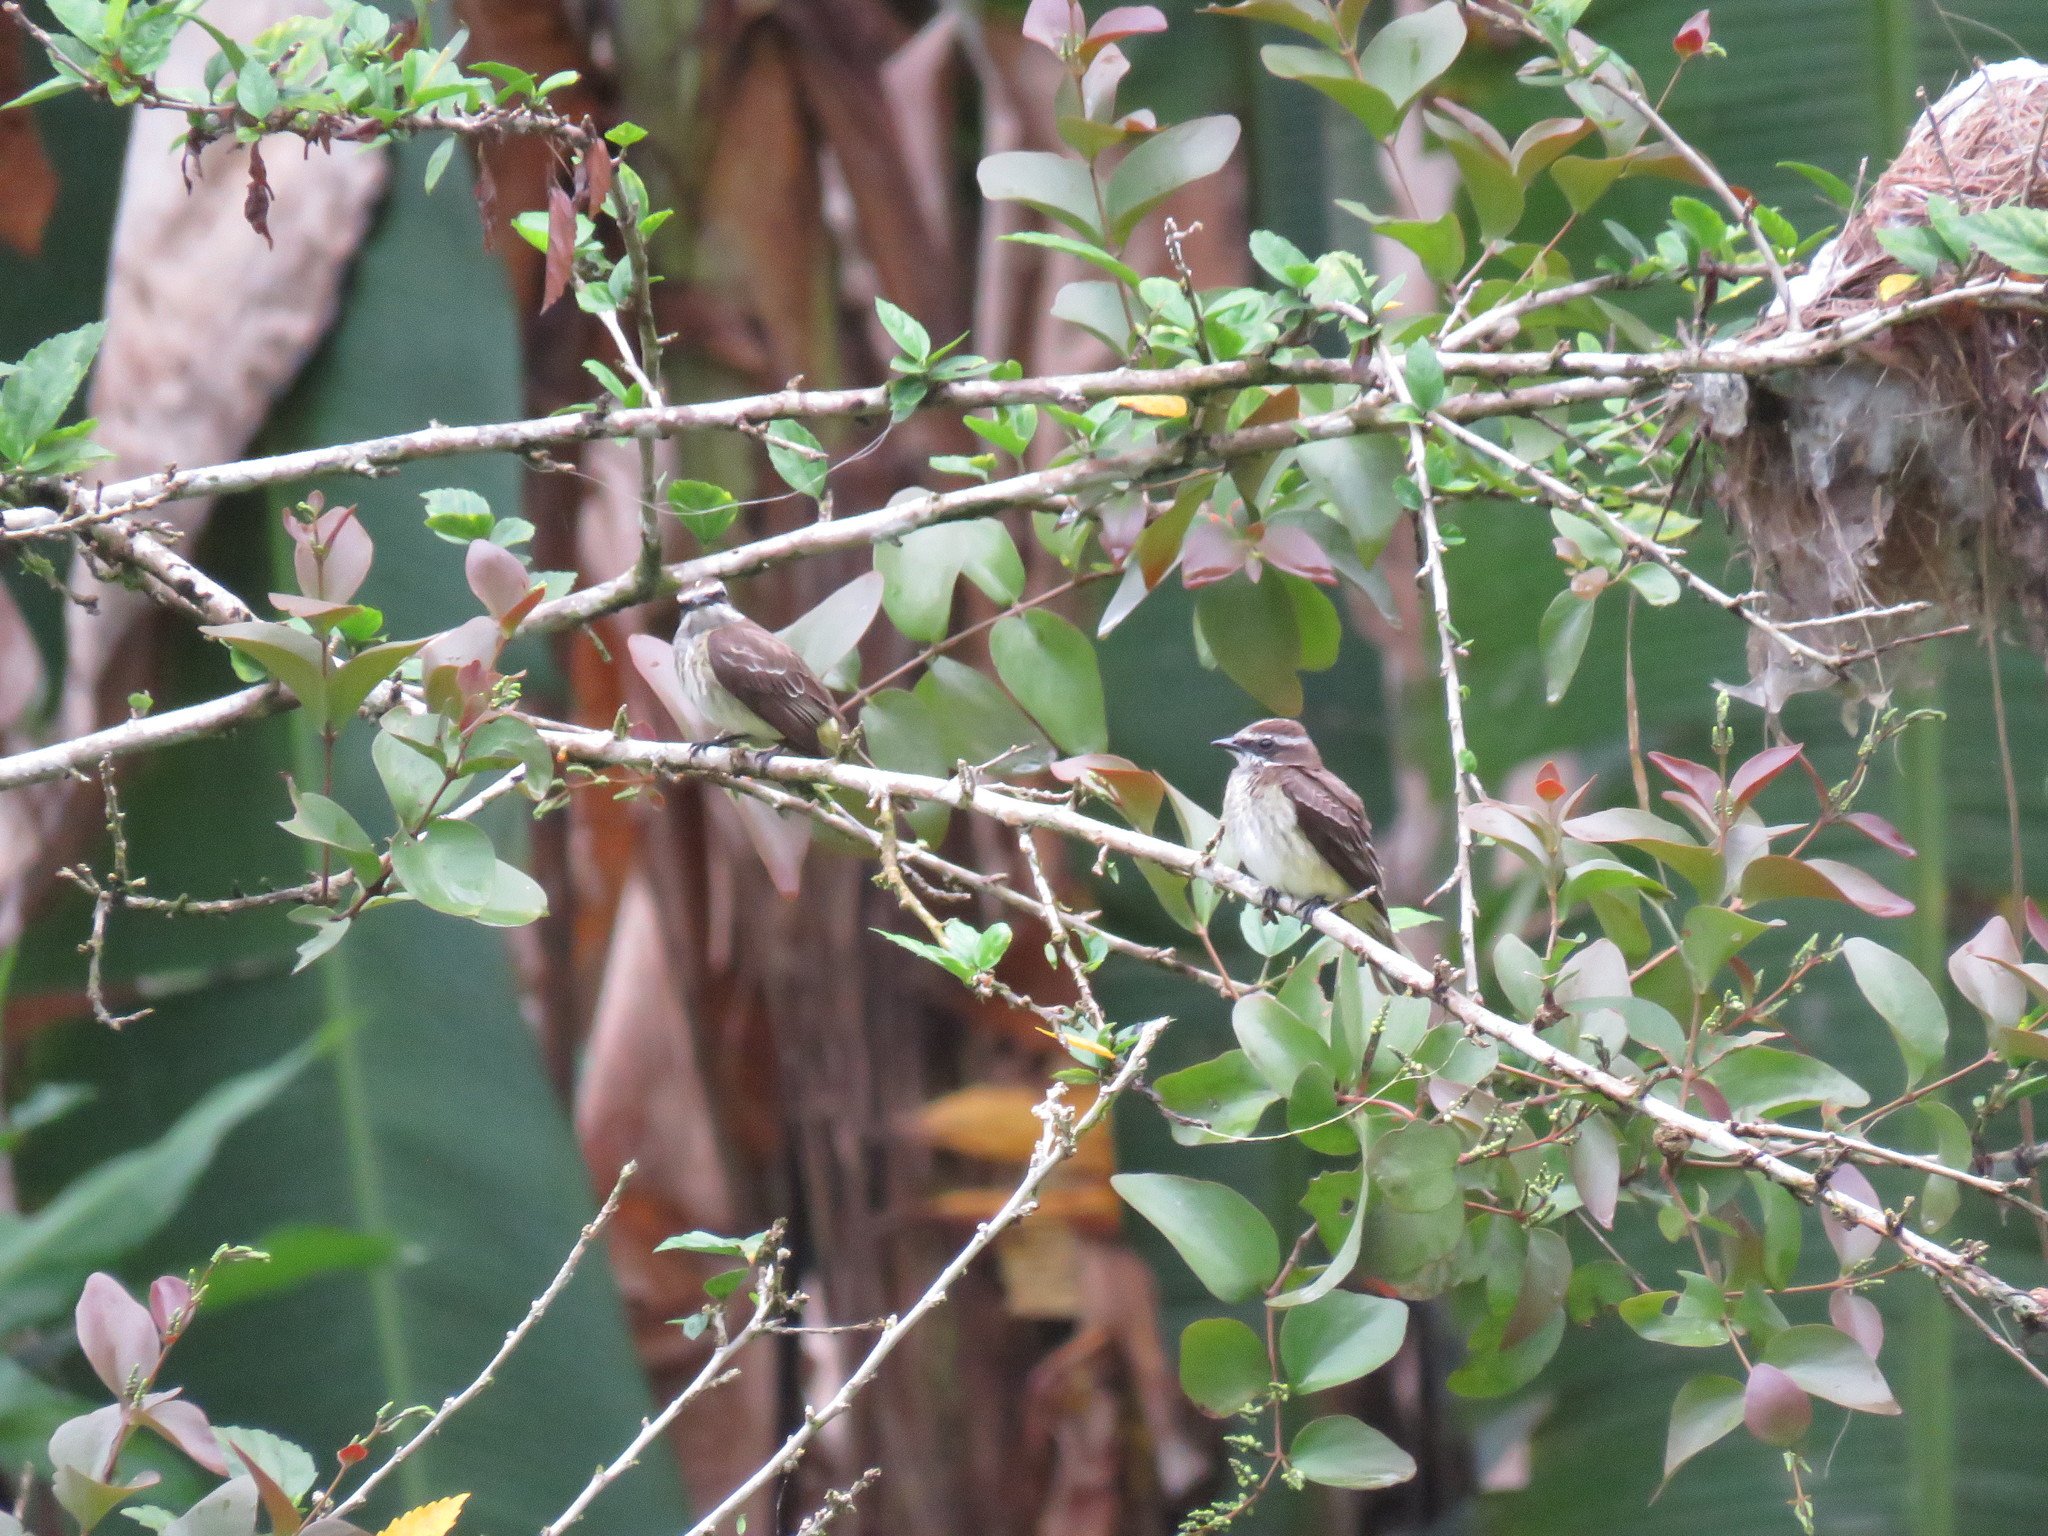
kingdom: Animalia
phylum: Chordata
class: Aves
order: Passeriformes
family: Tyrannidae
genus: Legatus
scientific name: Legatus leucophaius
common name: Piratic flycatcher
